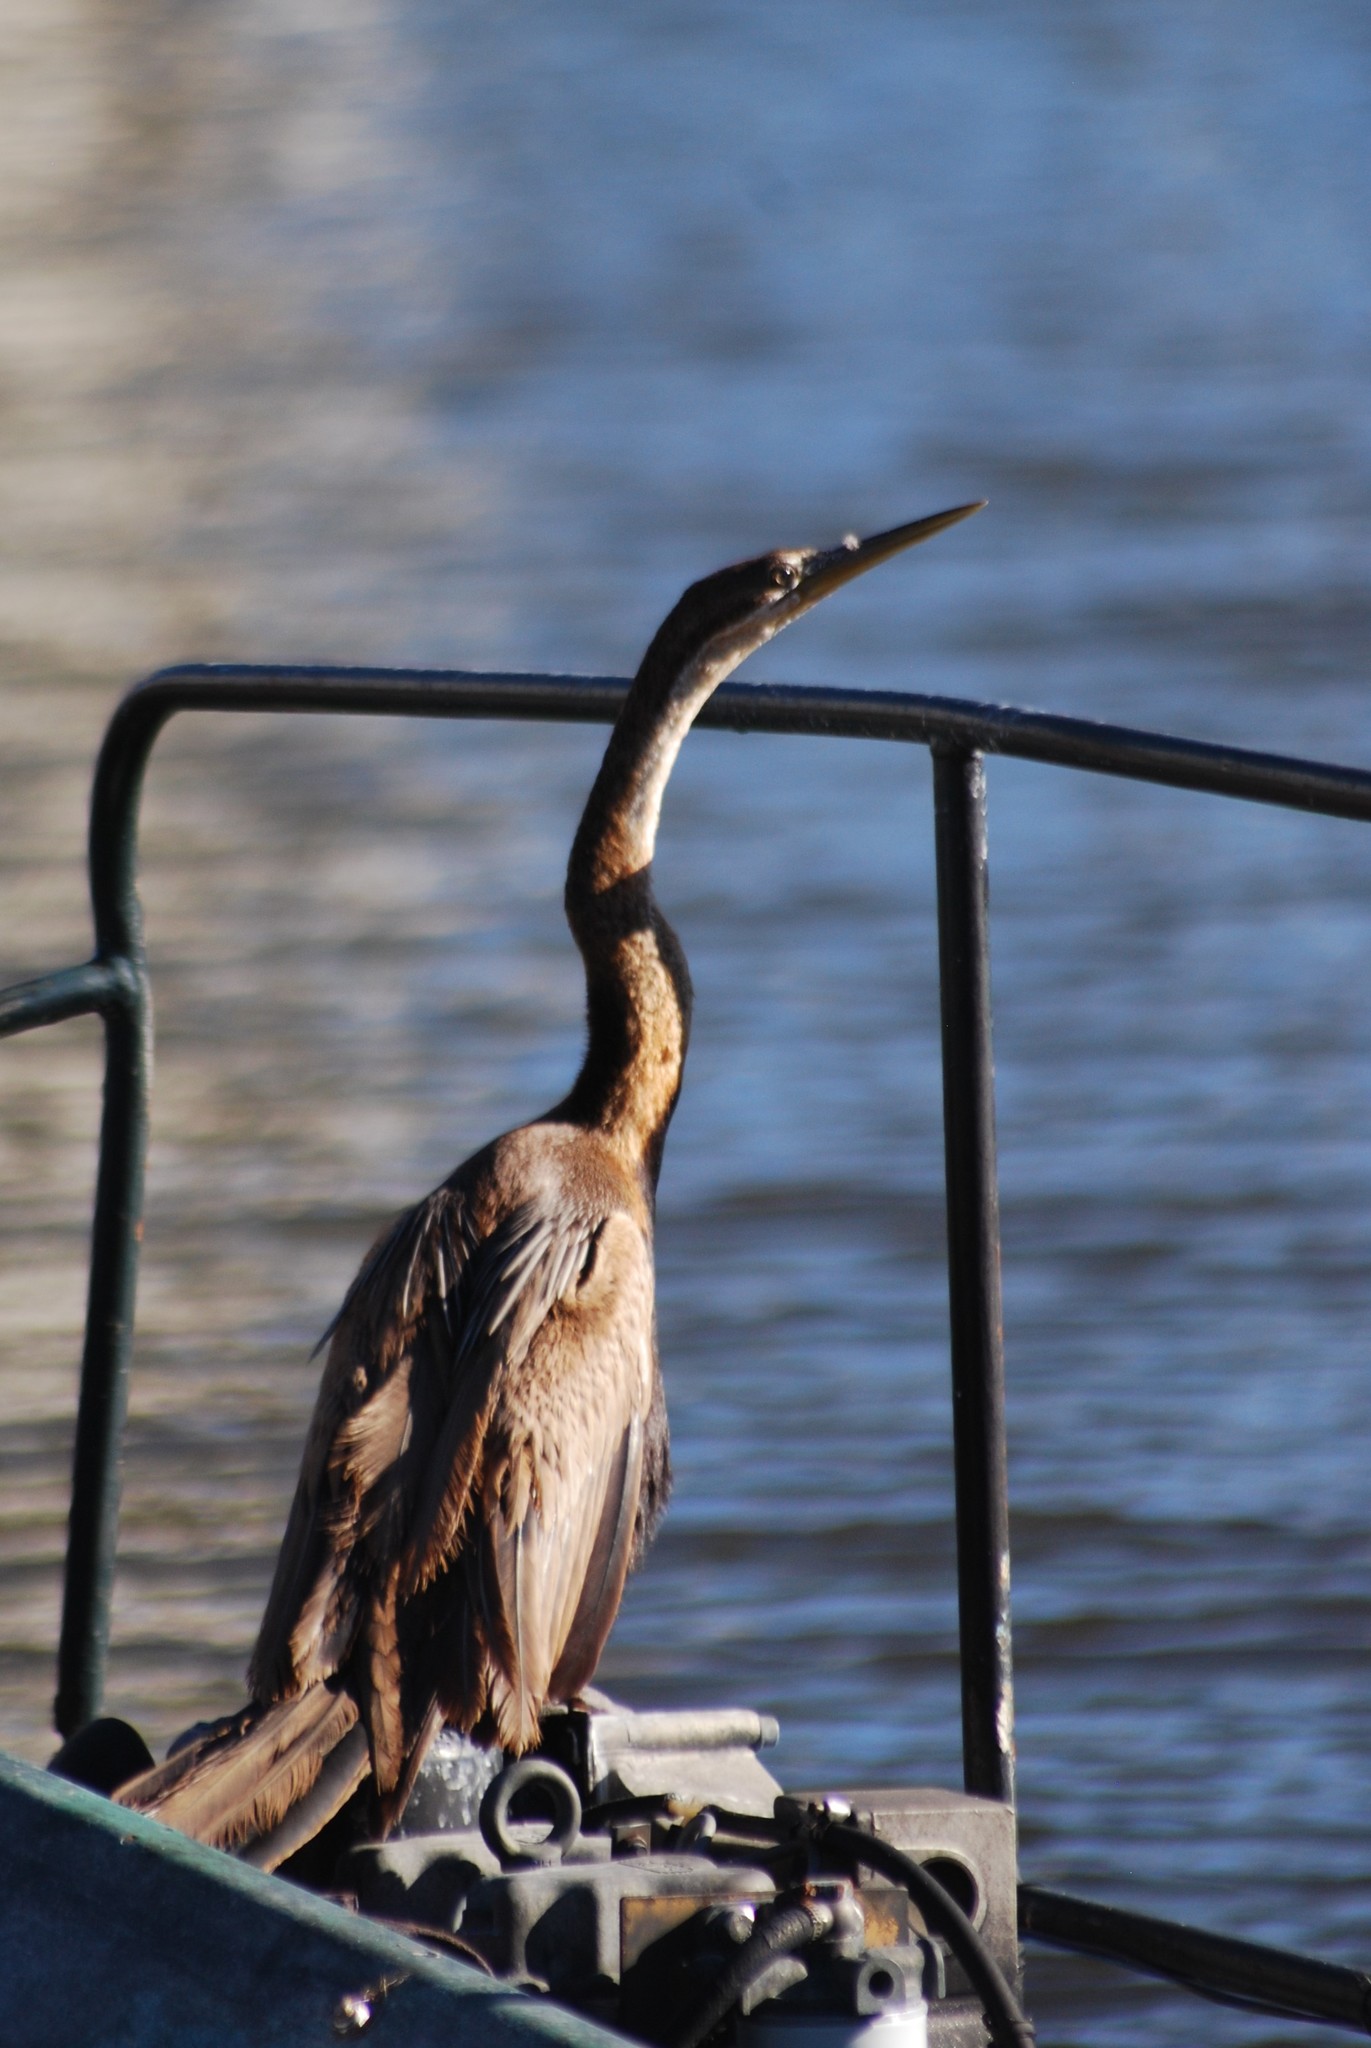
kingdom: Animalia
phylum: Chordata
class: Aves
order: Suliformes
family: Anhingidae
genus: Anhinga
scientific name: Anhinga rufa
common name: African darter
